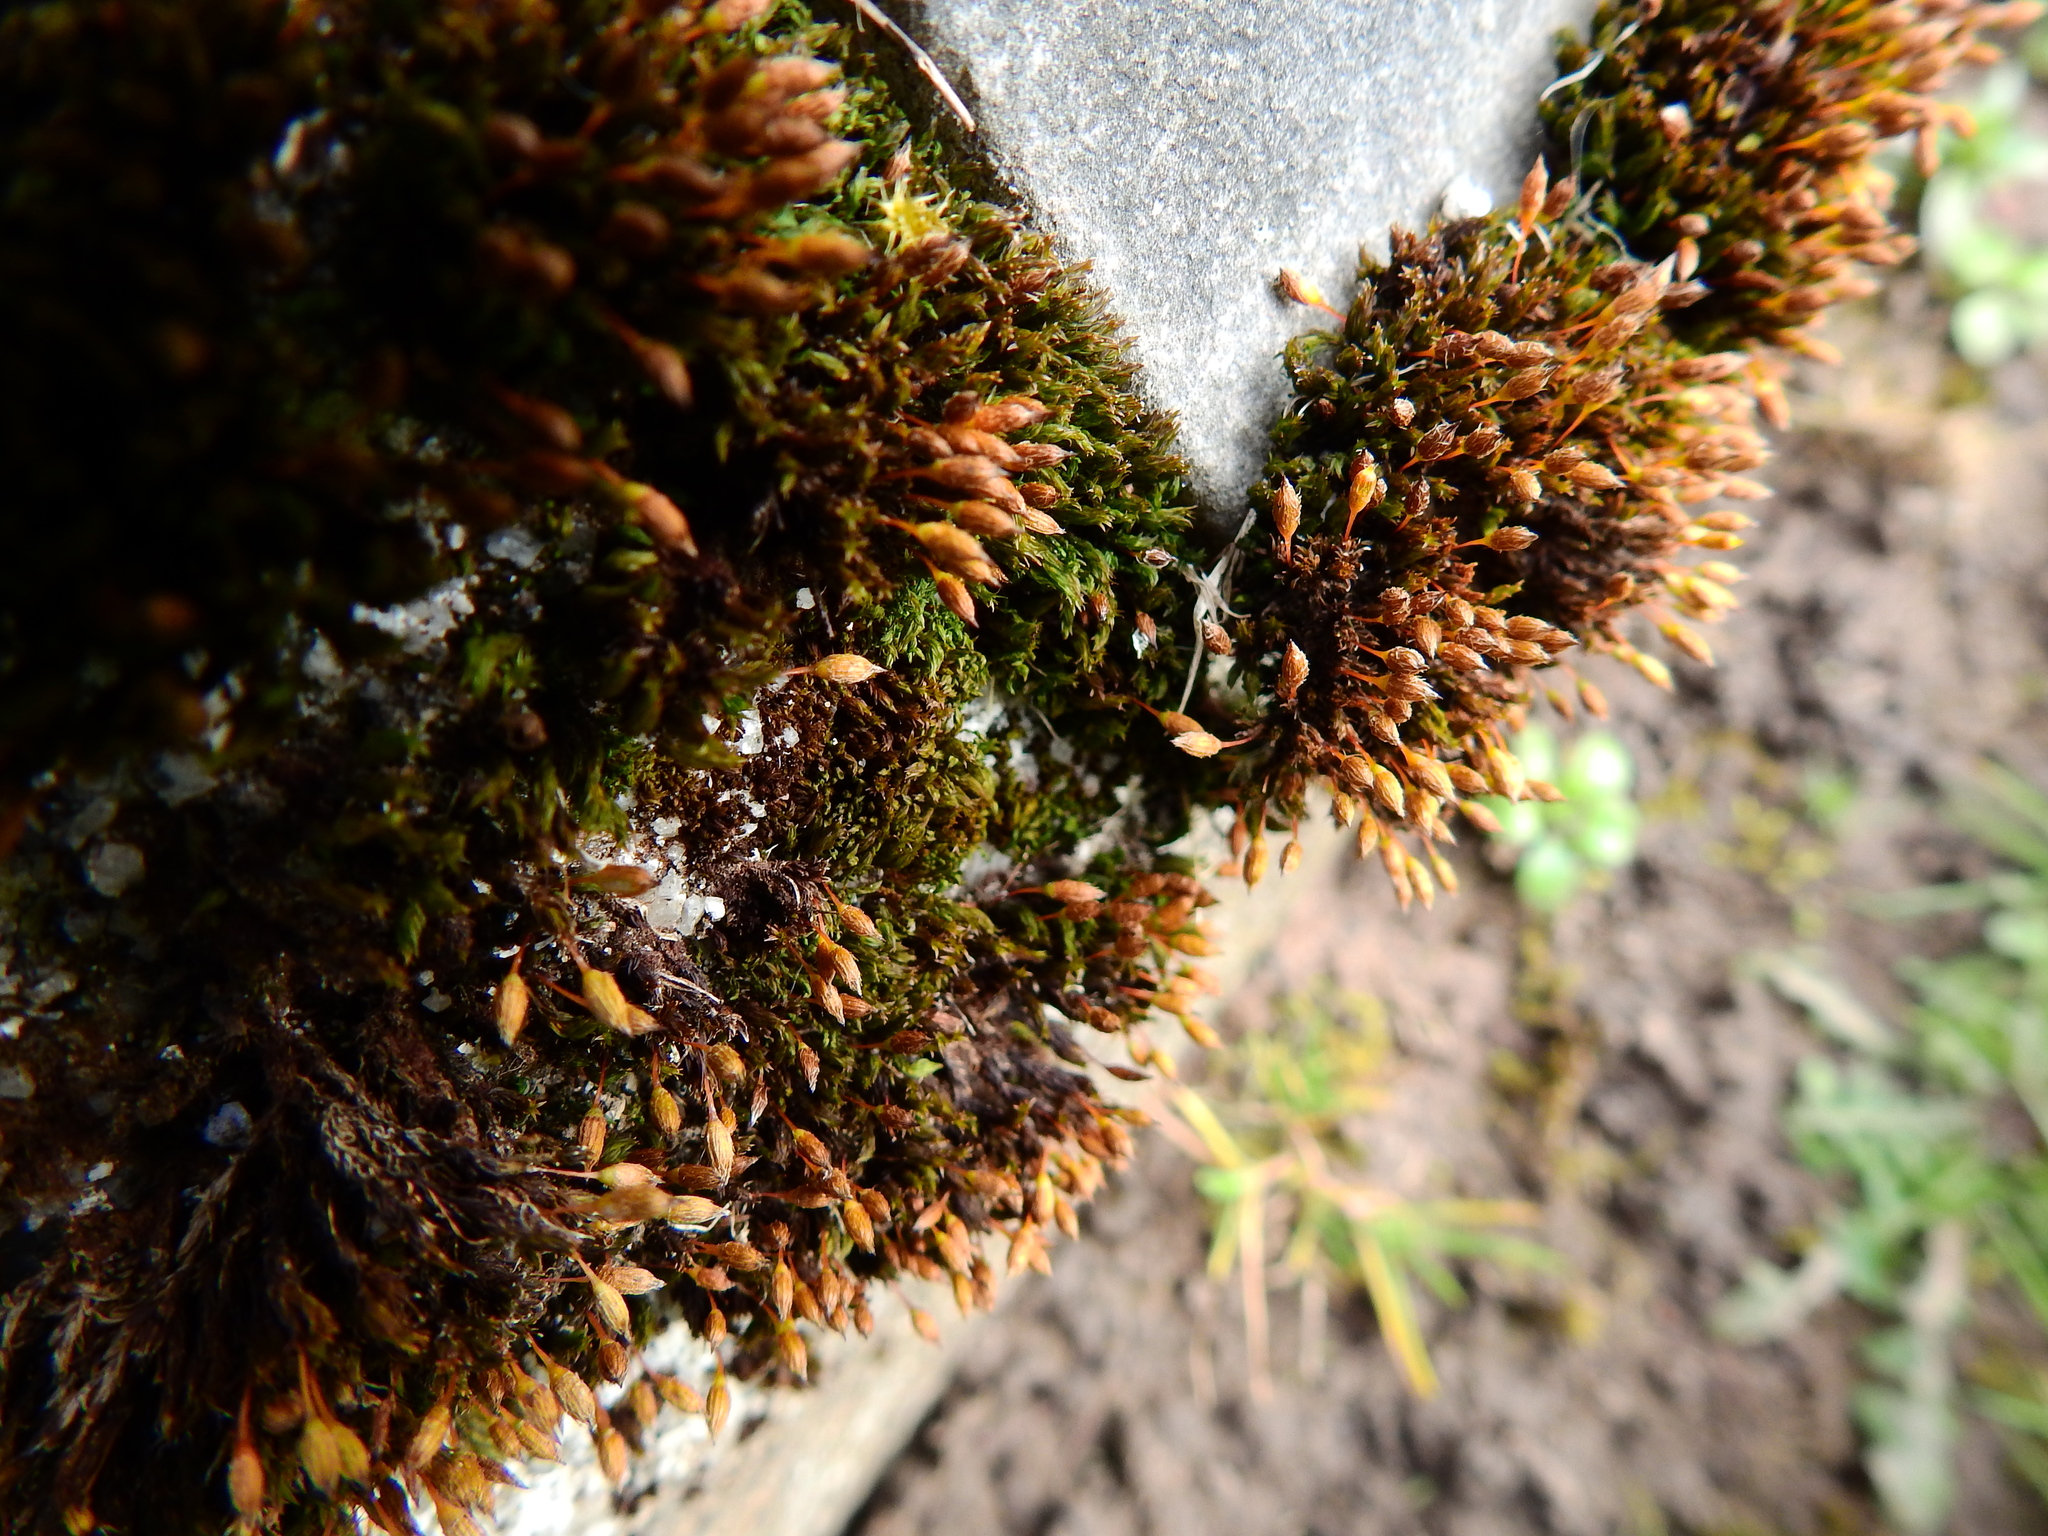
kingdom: Plantae
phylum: Bryophyta
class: Bryopsida
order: Orthotrichales
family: Orthotrichaceae
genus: Orthotrichum
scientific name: Orthotrichum anomalum
